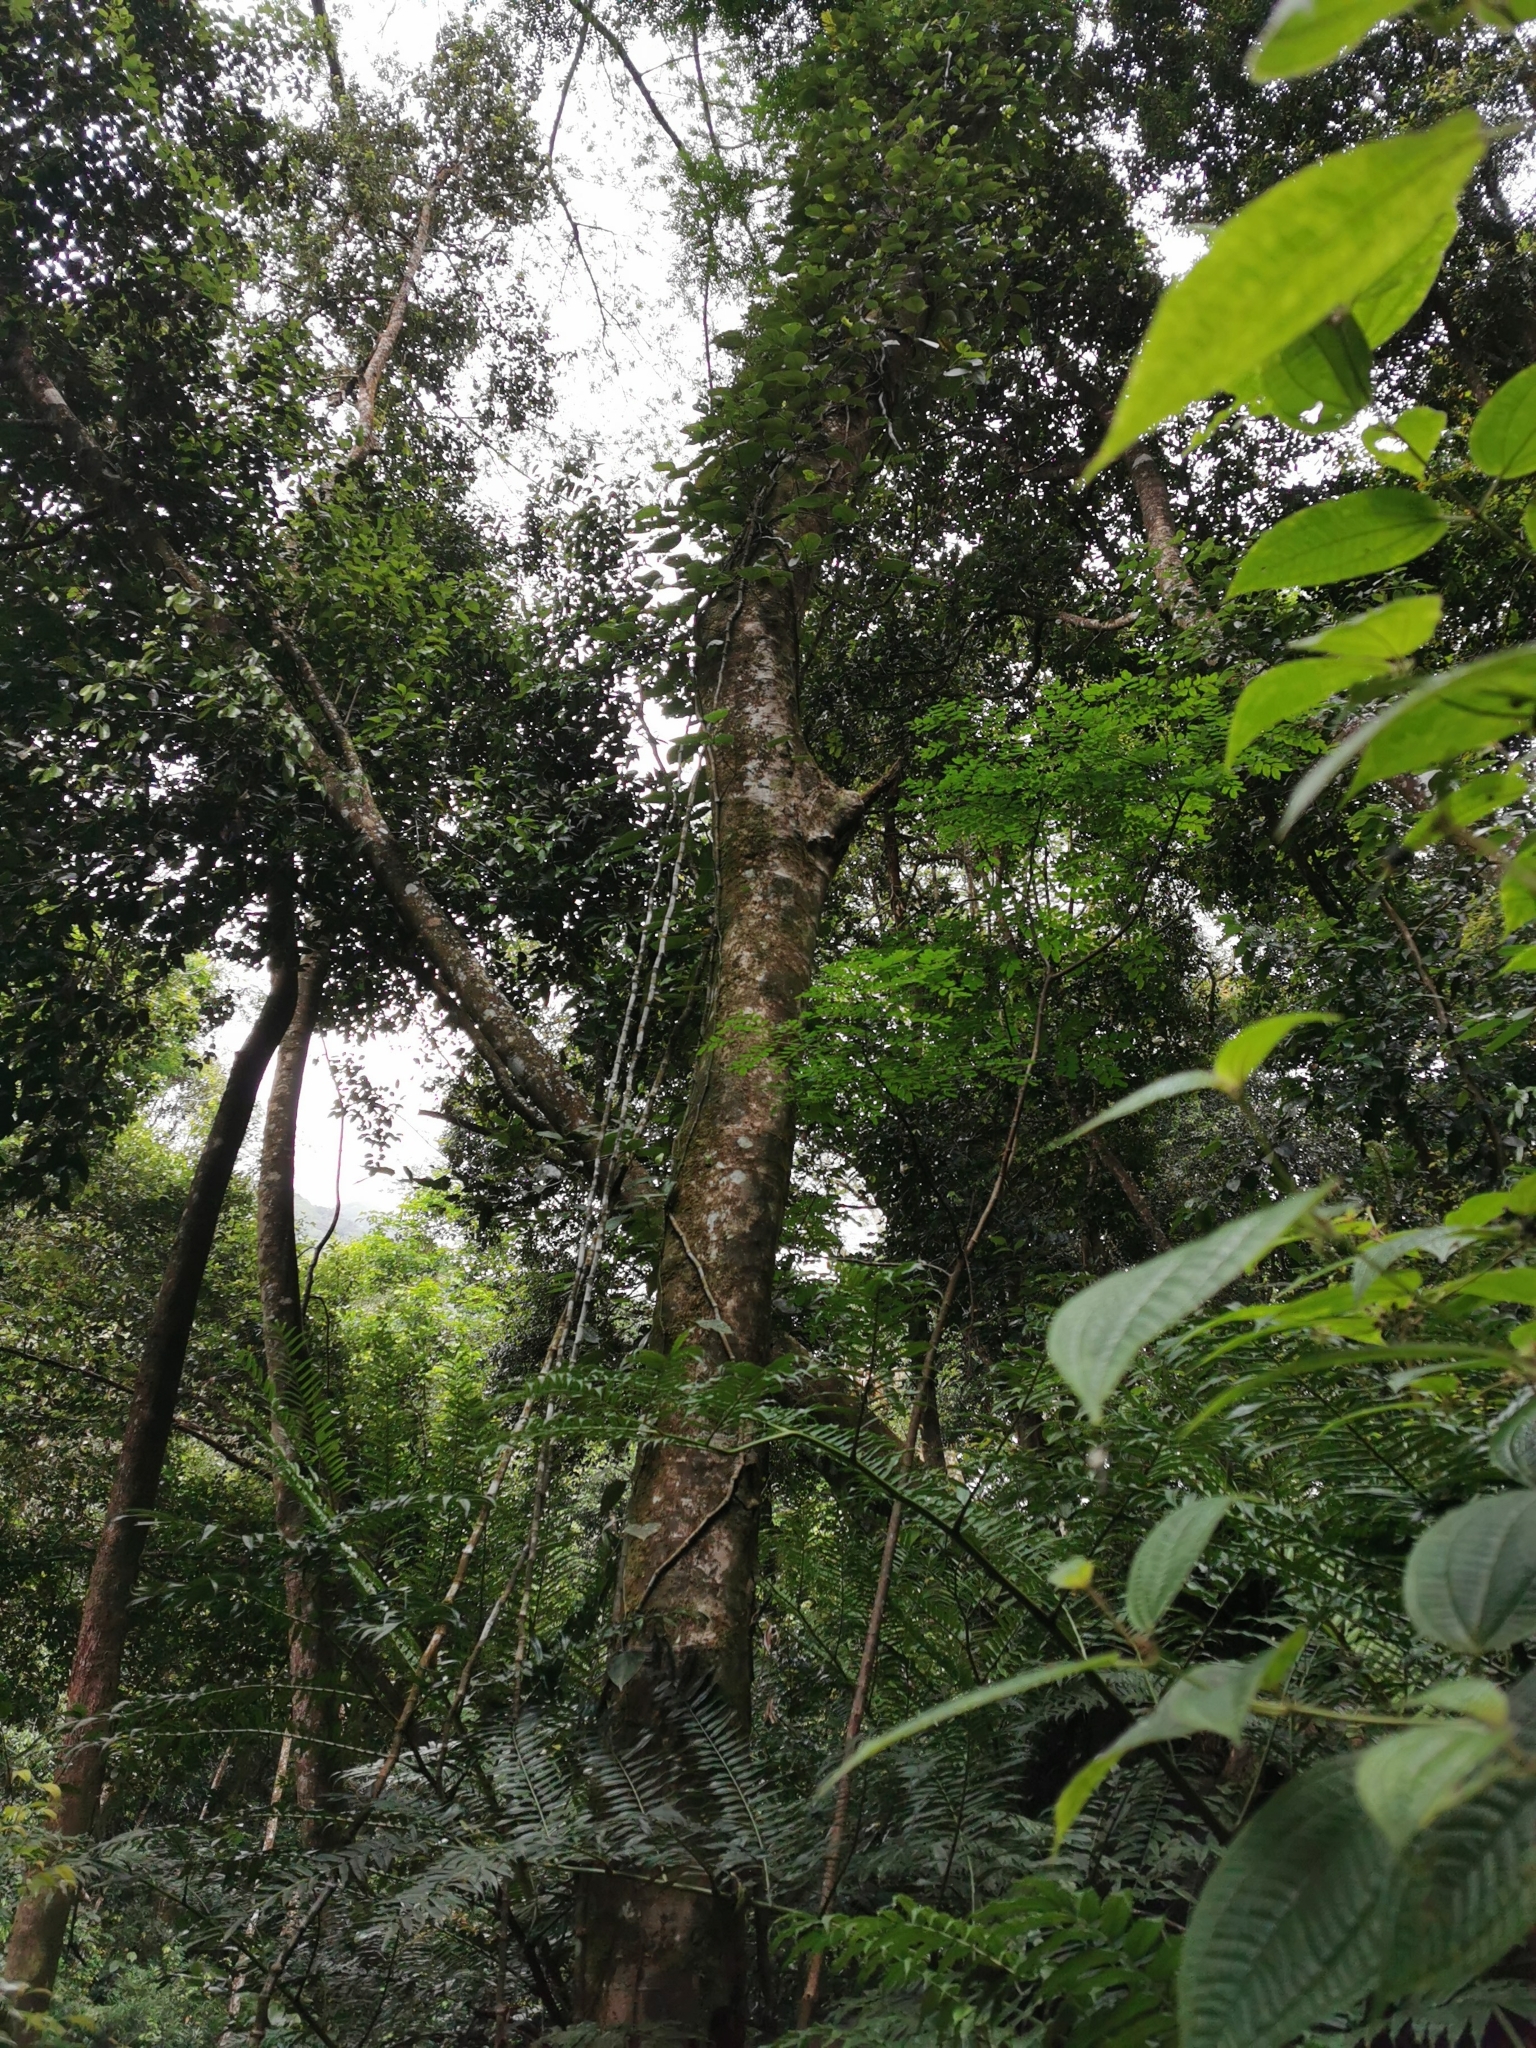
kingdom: Plantae
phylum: Tracheophyta
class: Magnoliopsida
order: Piperales
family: Piperaceae
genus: Piper
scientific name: Piper nigrum
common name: Black pepper
